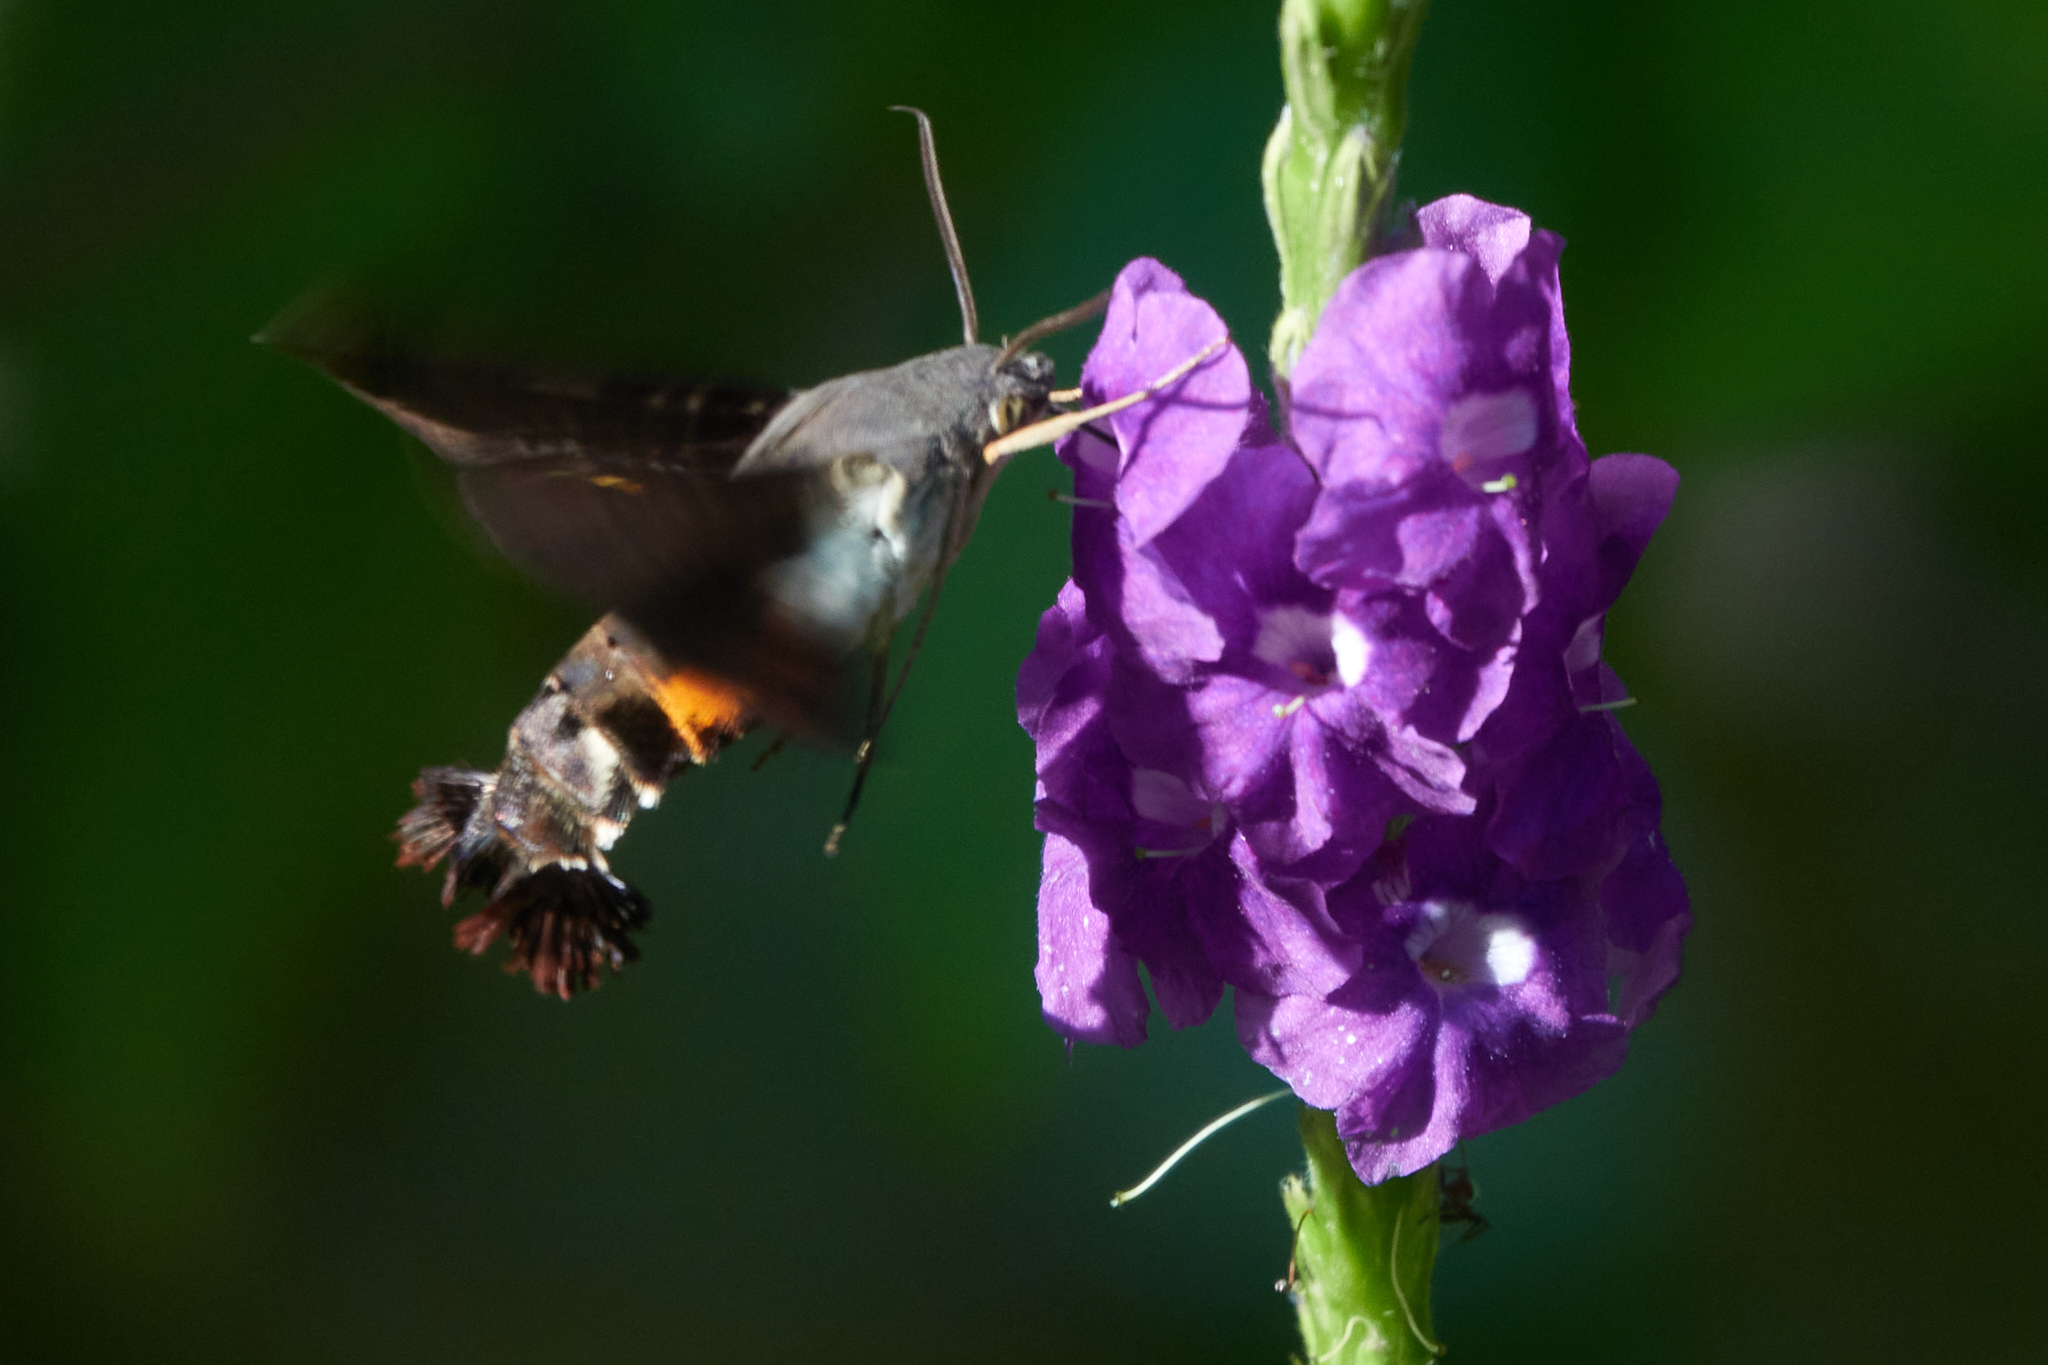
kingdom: Animalia
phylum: Arthropoda
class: Insecta
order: Lepidoptera
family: Sphingidae
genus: Aellopos
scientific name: Aellopos ceculus
